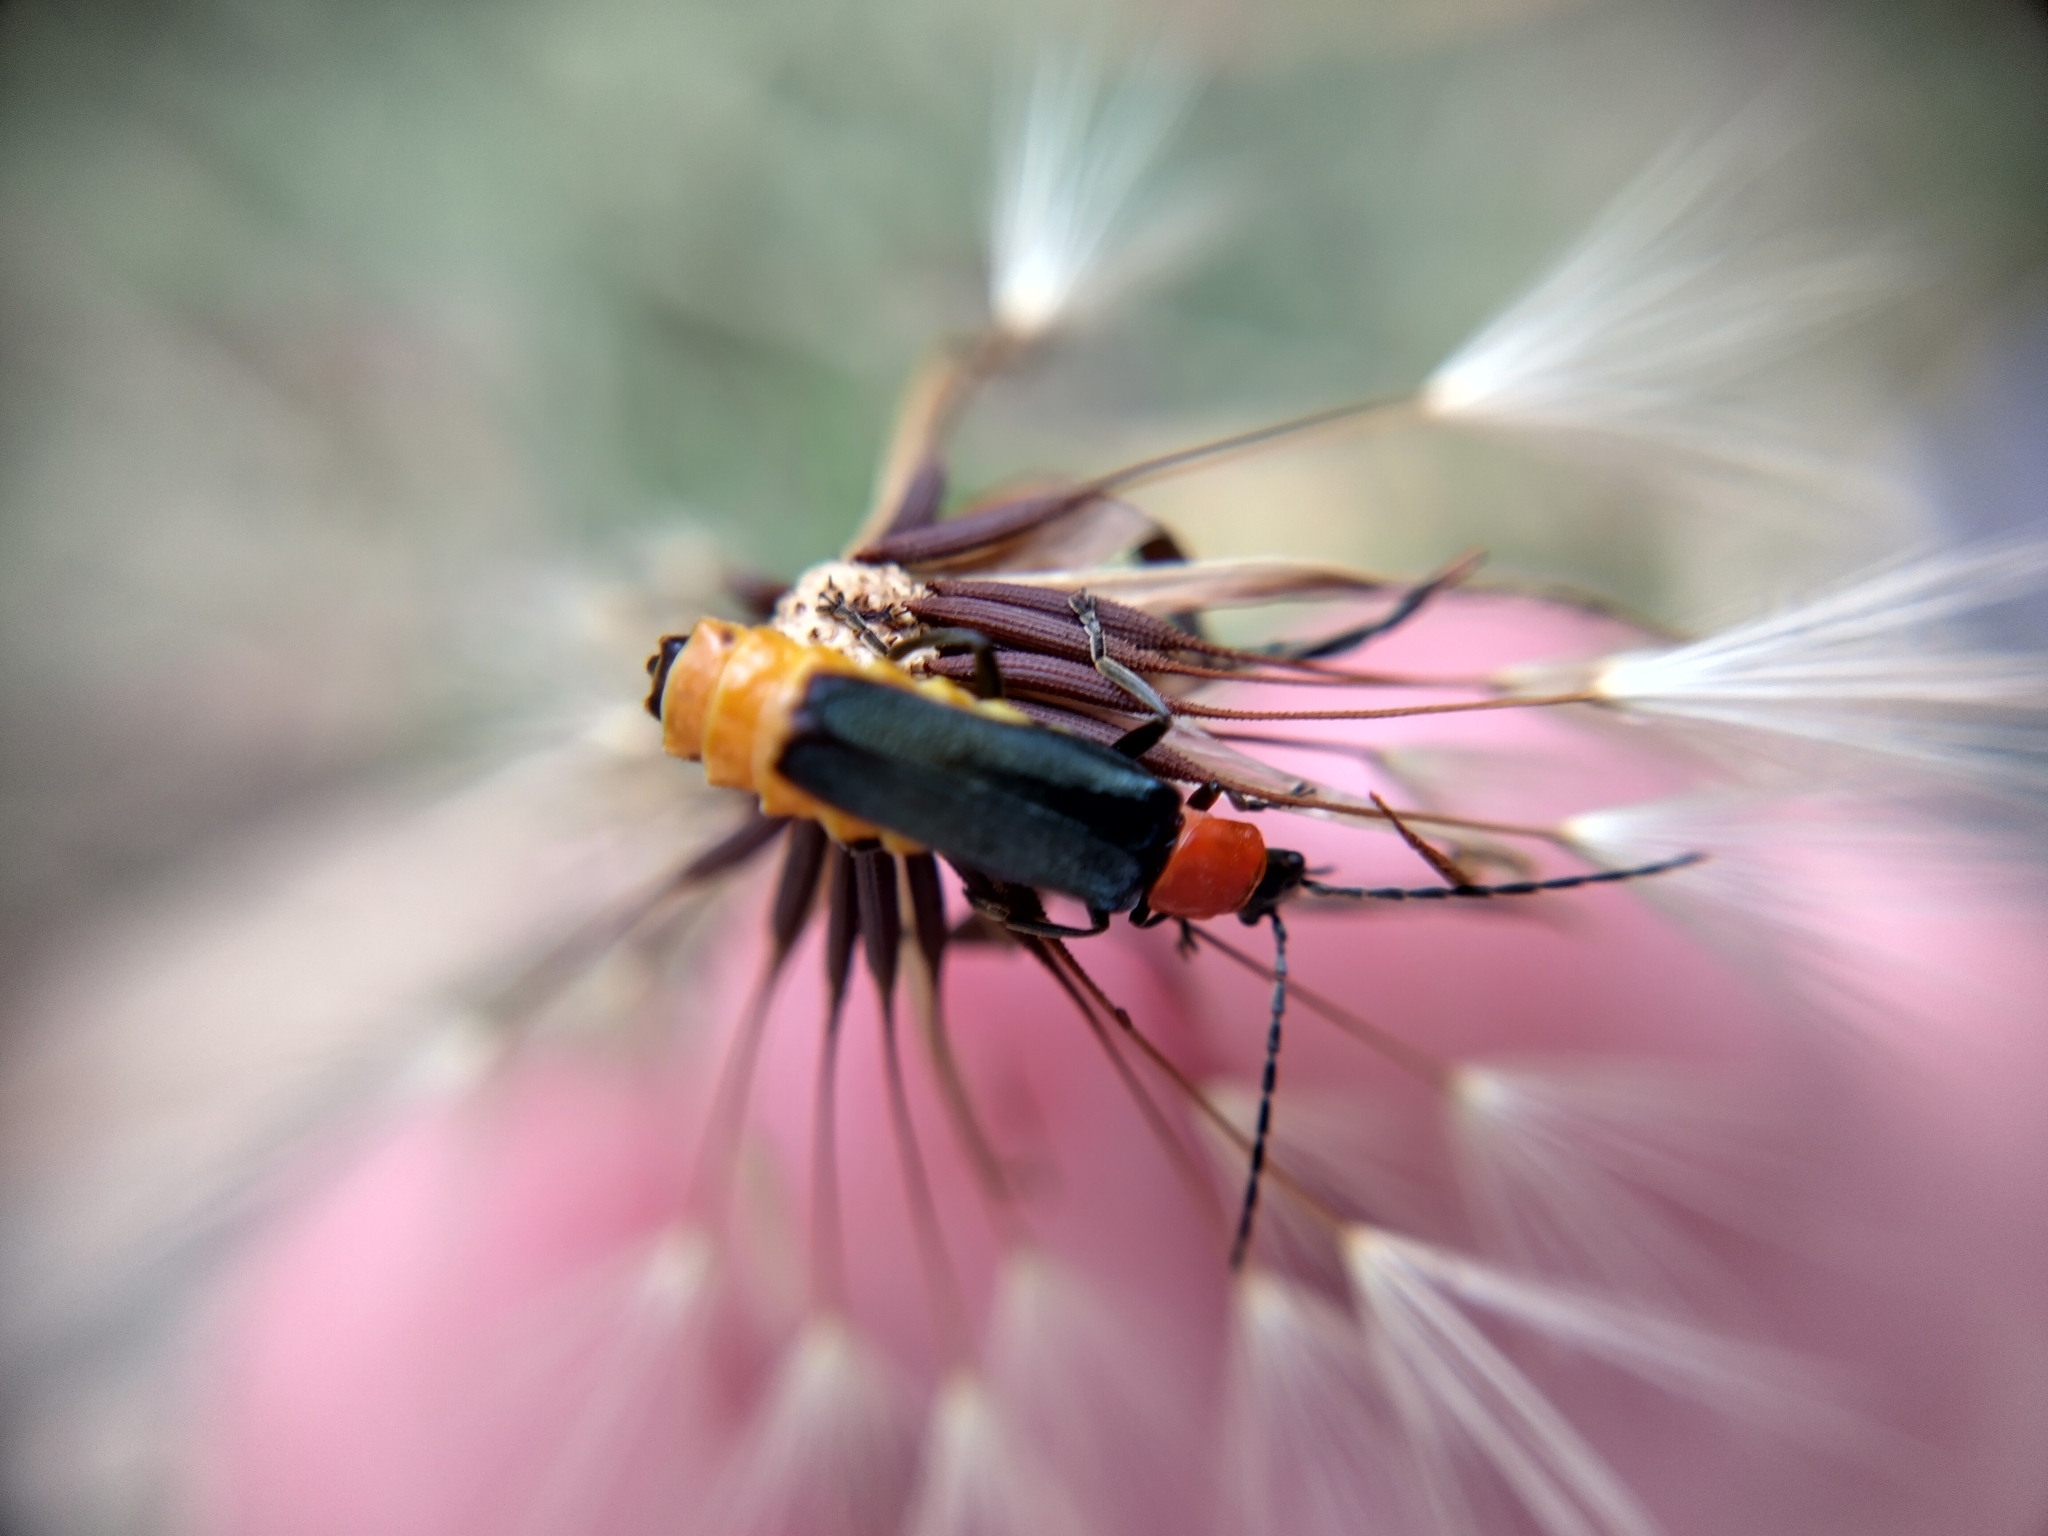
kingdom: Animalia
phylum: Arthropoda
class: Insecta
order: Coleoptera
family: Cantharidae
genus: Chauliognathus
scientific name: Chauliognathus
